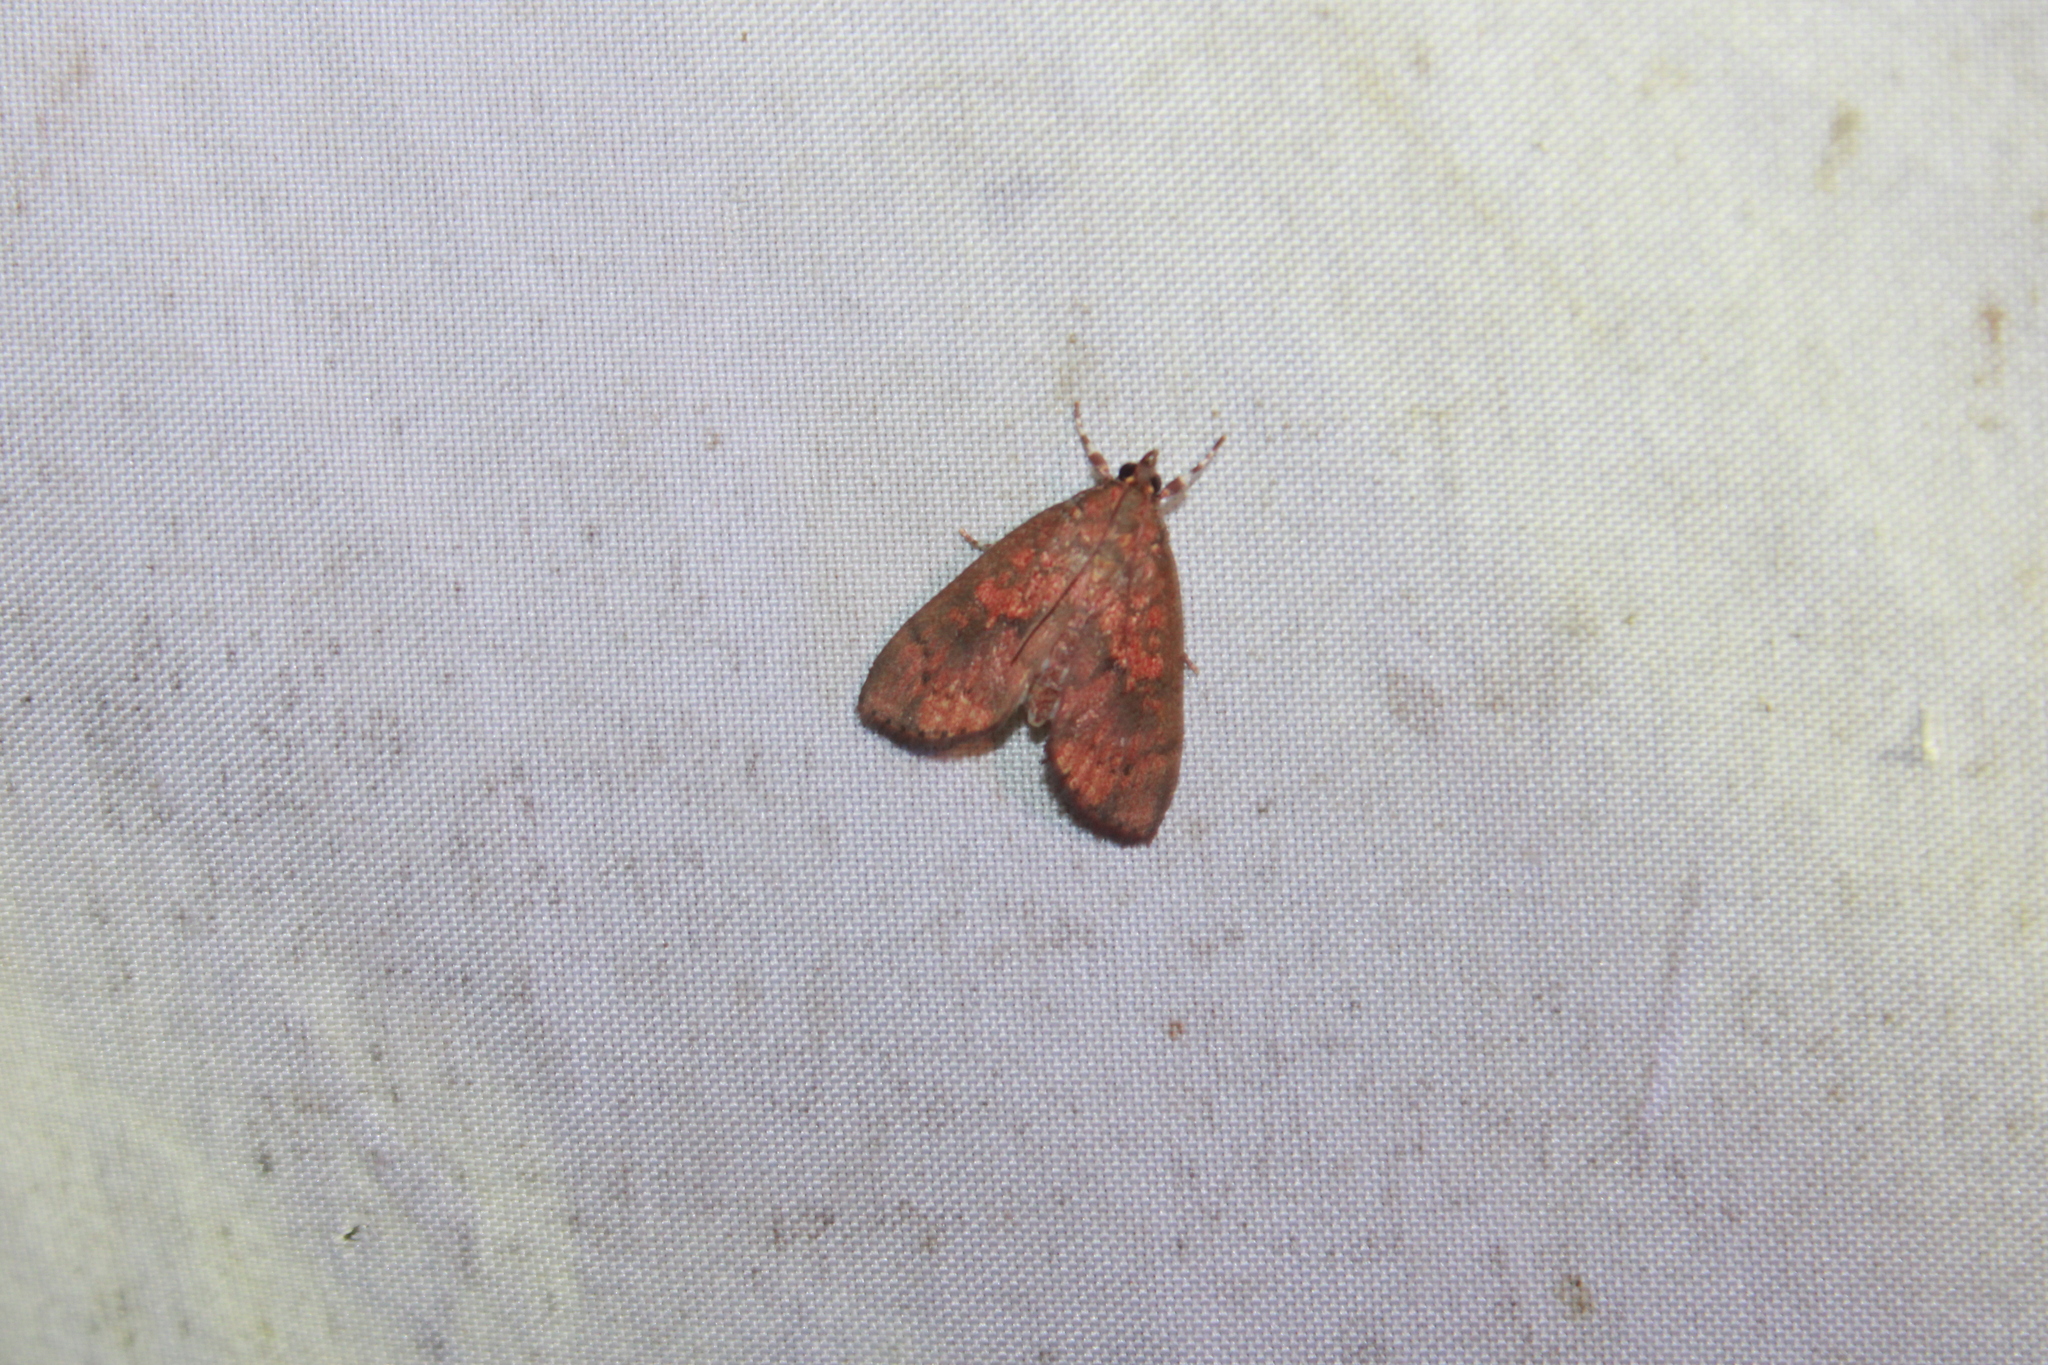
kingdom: Animalia
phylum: Arthropoda
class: Insecta
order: Lepidoptera
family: Crambidae
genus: Mimophobetron
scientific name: Mimophobetron pyropsalis
